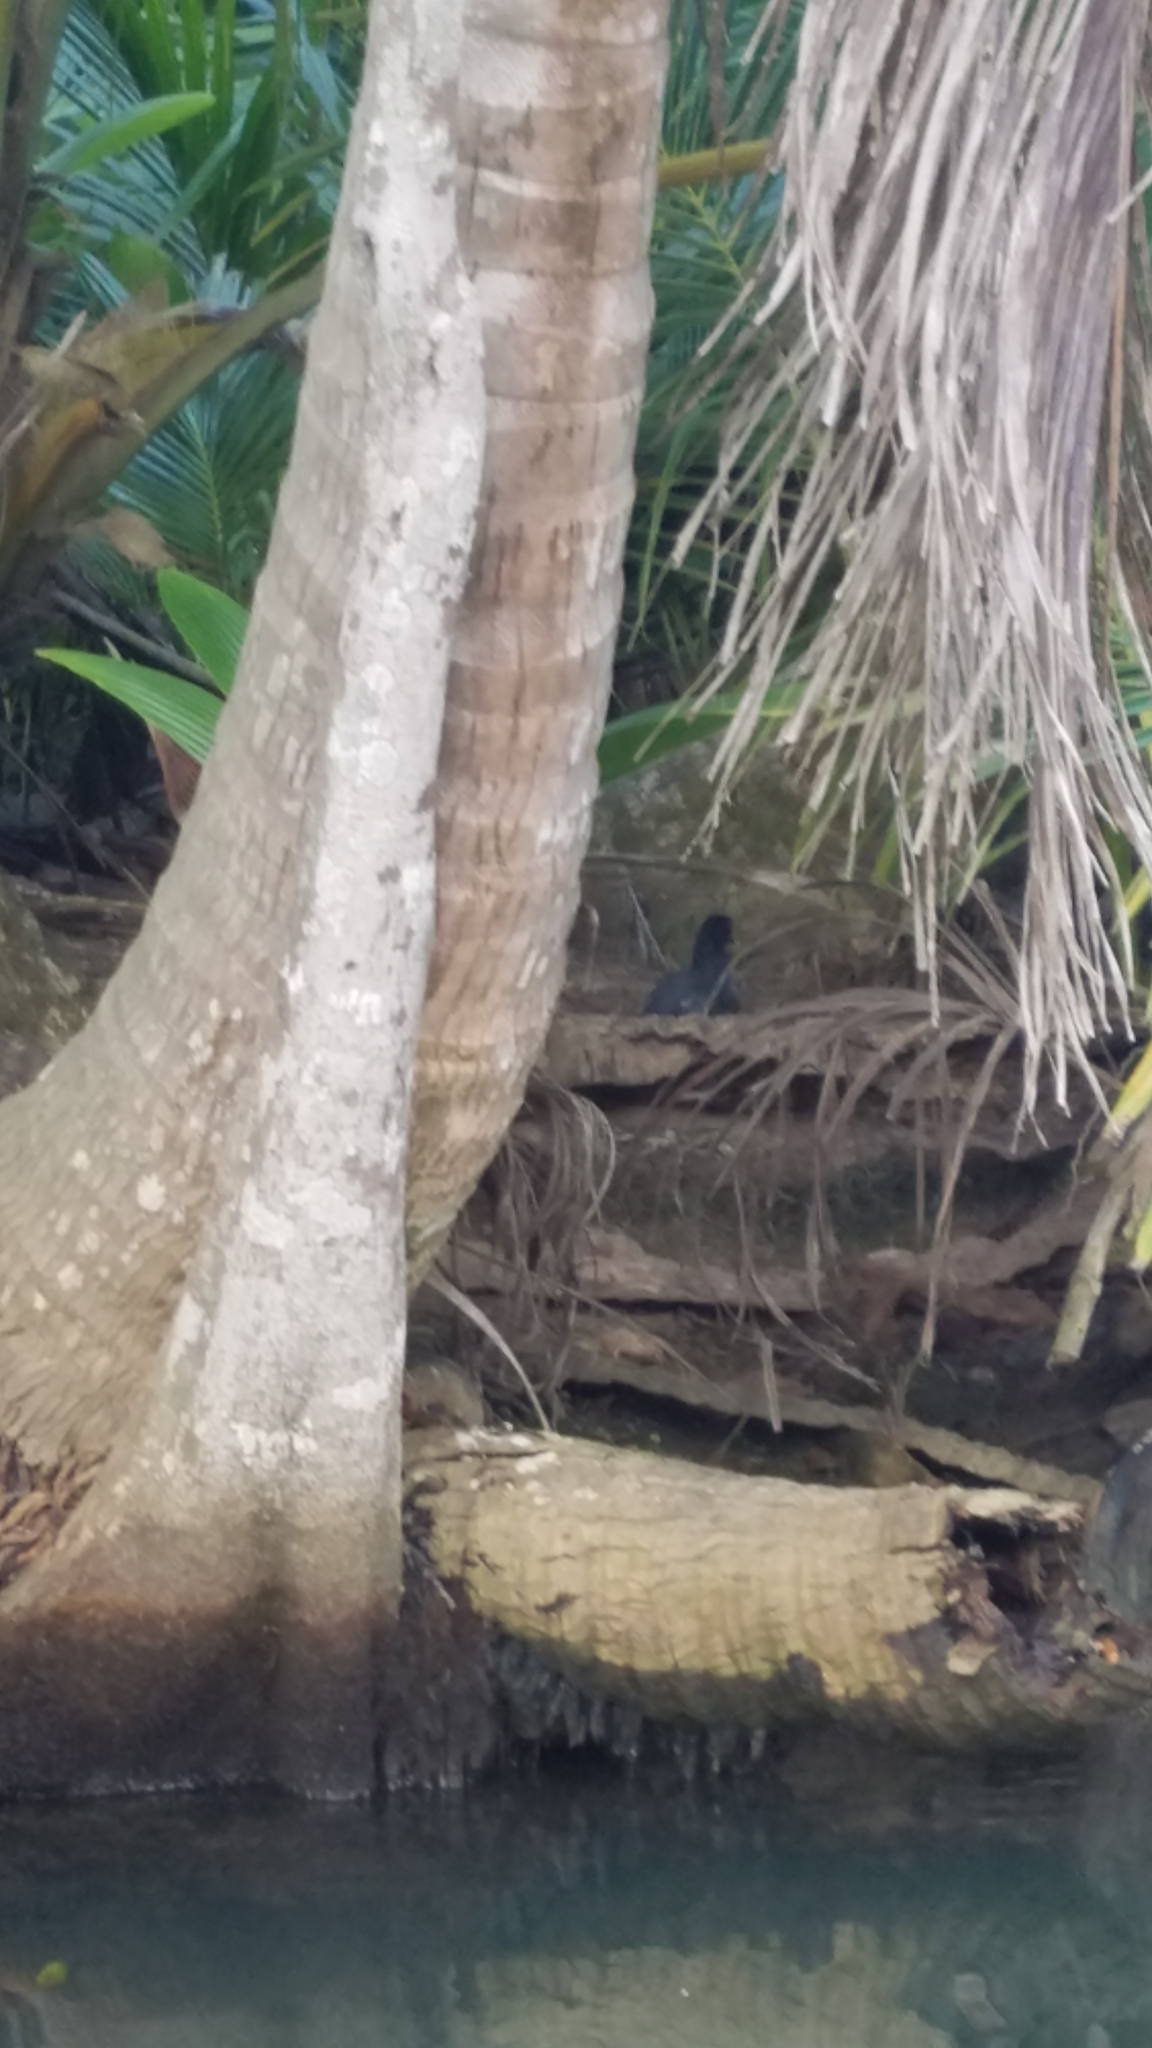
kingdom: Animalia
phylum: Chordata
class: Aves
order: Gruiformes
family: Rallidae
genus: Gallinula
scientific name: Gallinula chloropus
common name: Common moorhen
